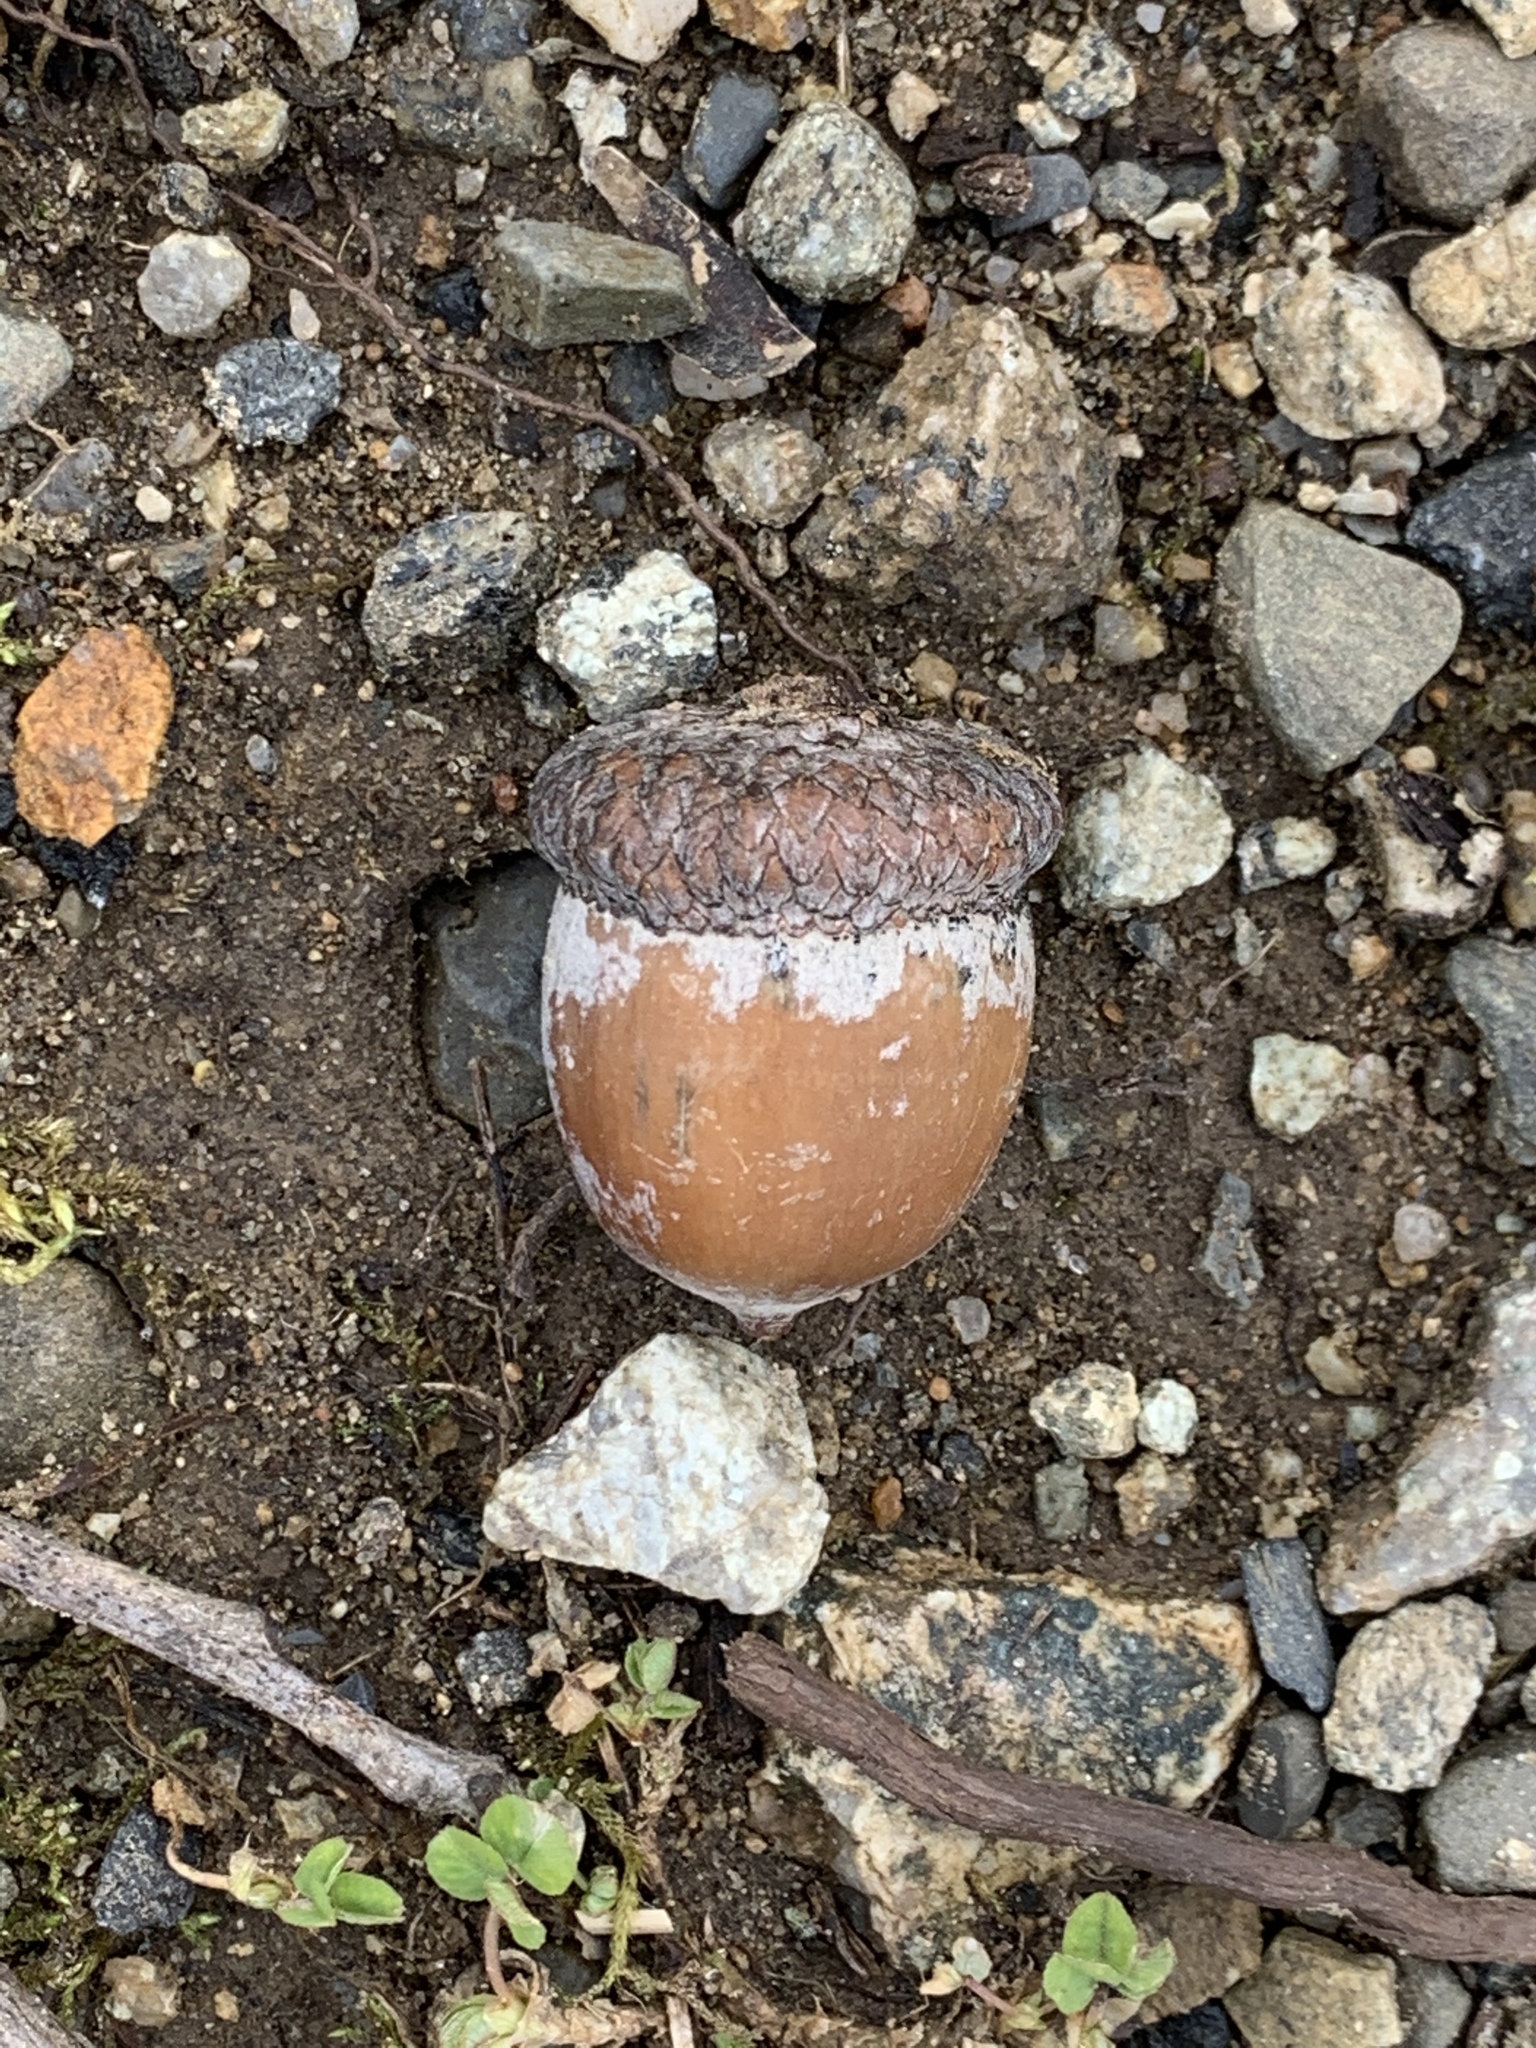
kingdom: Plantae
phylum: Tracheophyta
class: Magnoliopsida
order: Fagales
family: Fagaceae
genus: Quercus
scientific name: Quercus rubra
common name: Red oak
